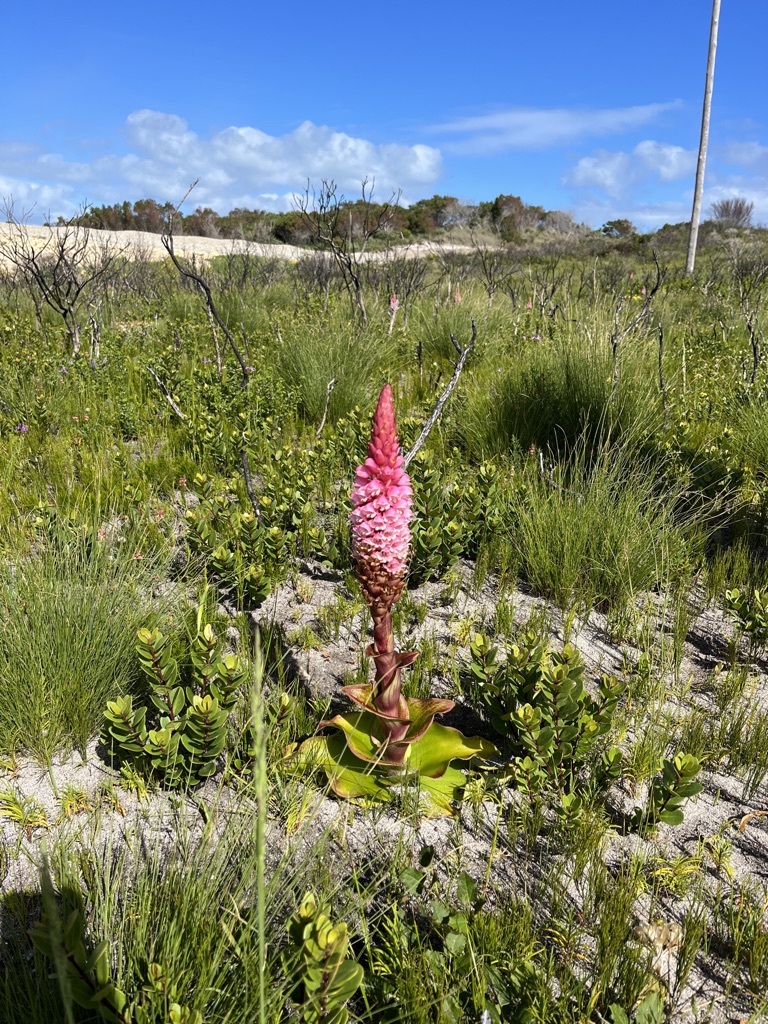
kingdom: Plantae
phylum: Tracheophyta
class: Liliopsida
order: Asparagales
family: Orchidaceae
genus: Satyrium
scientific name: Satyrium carneum
